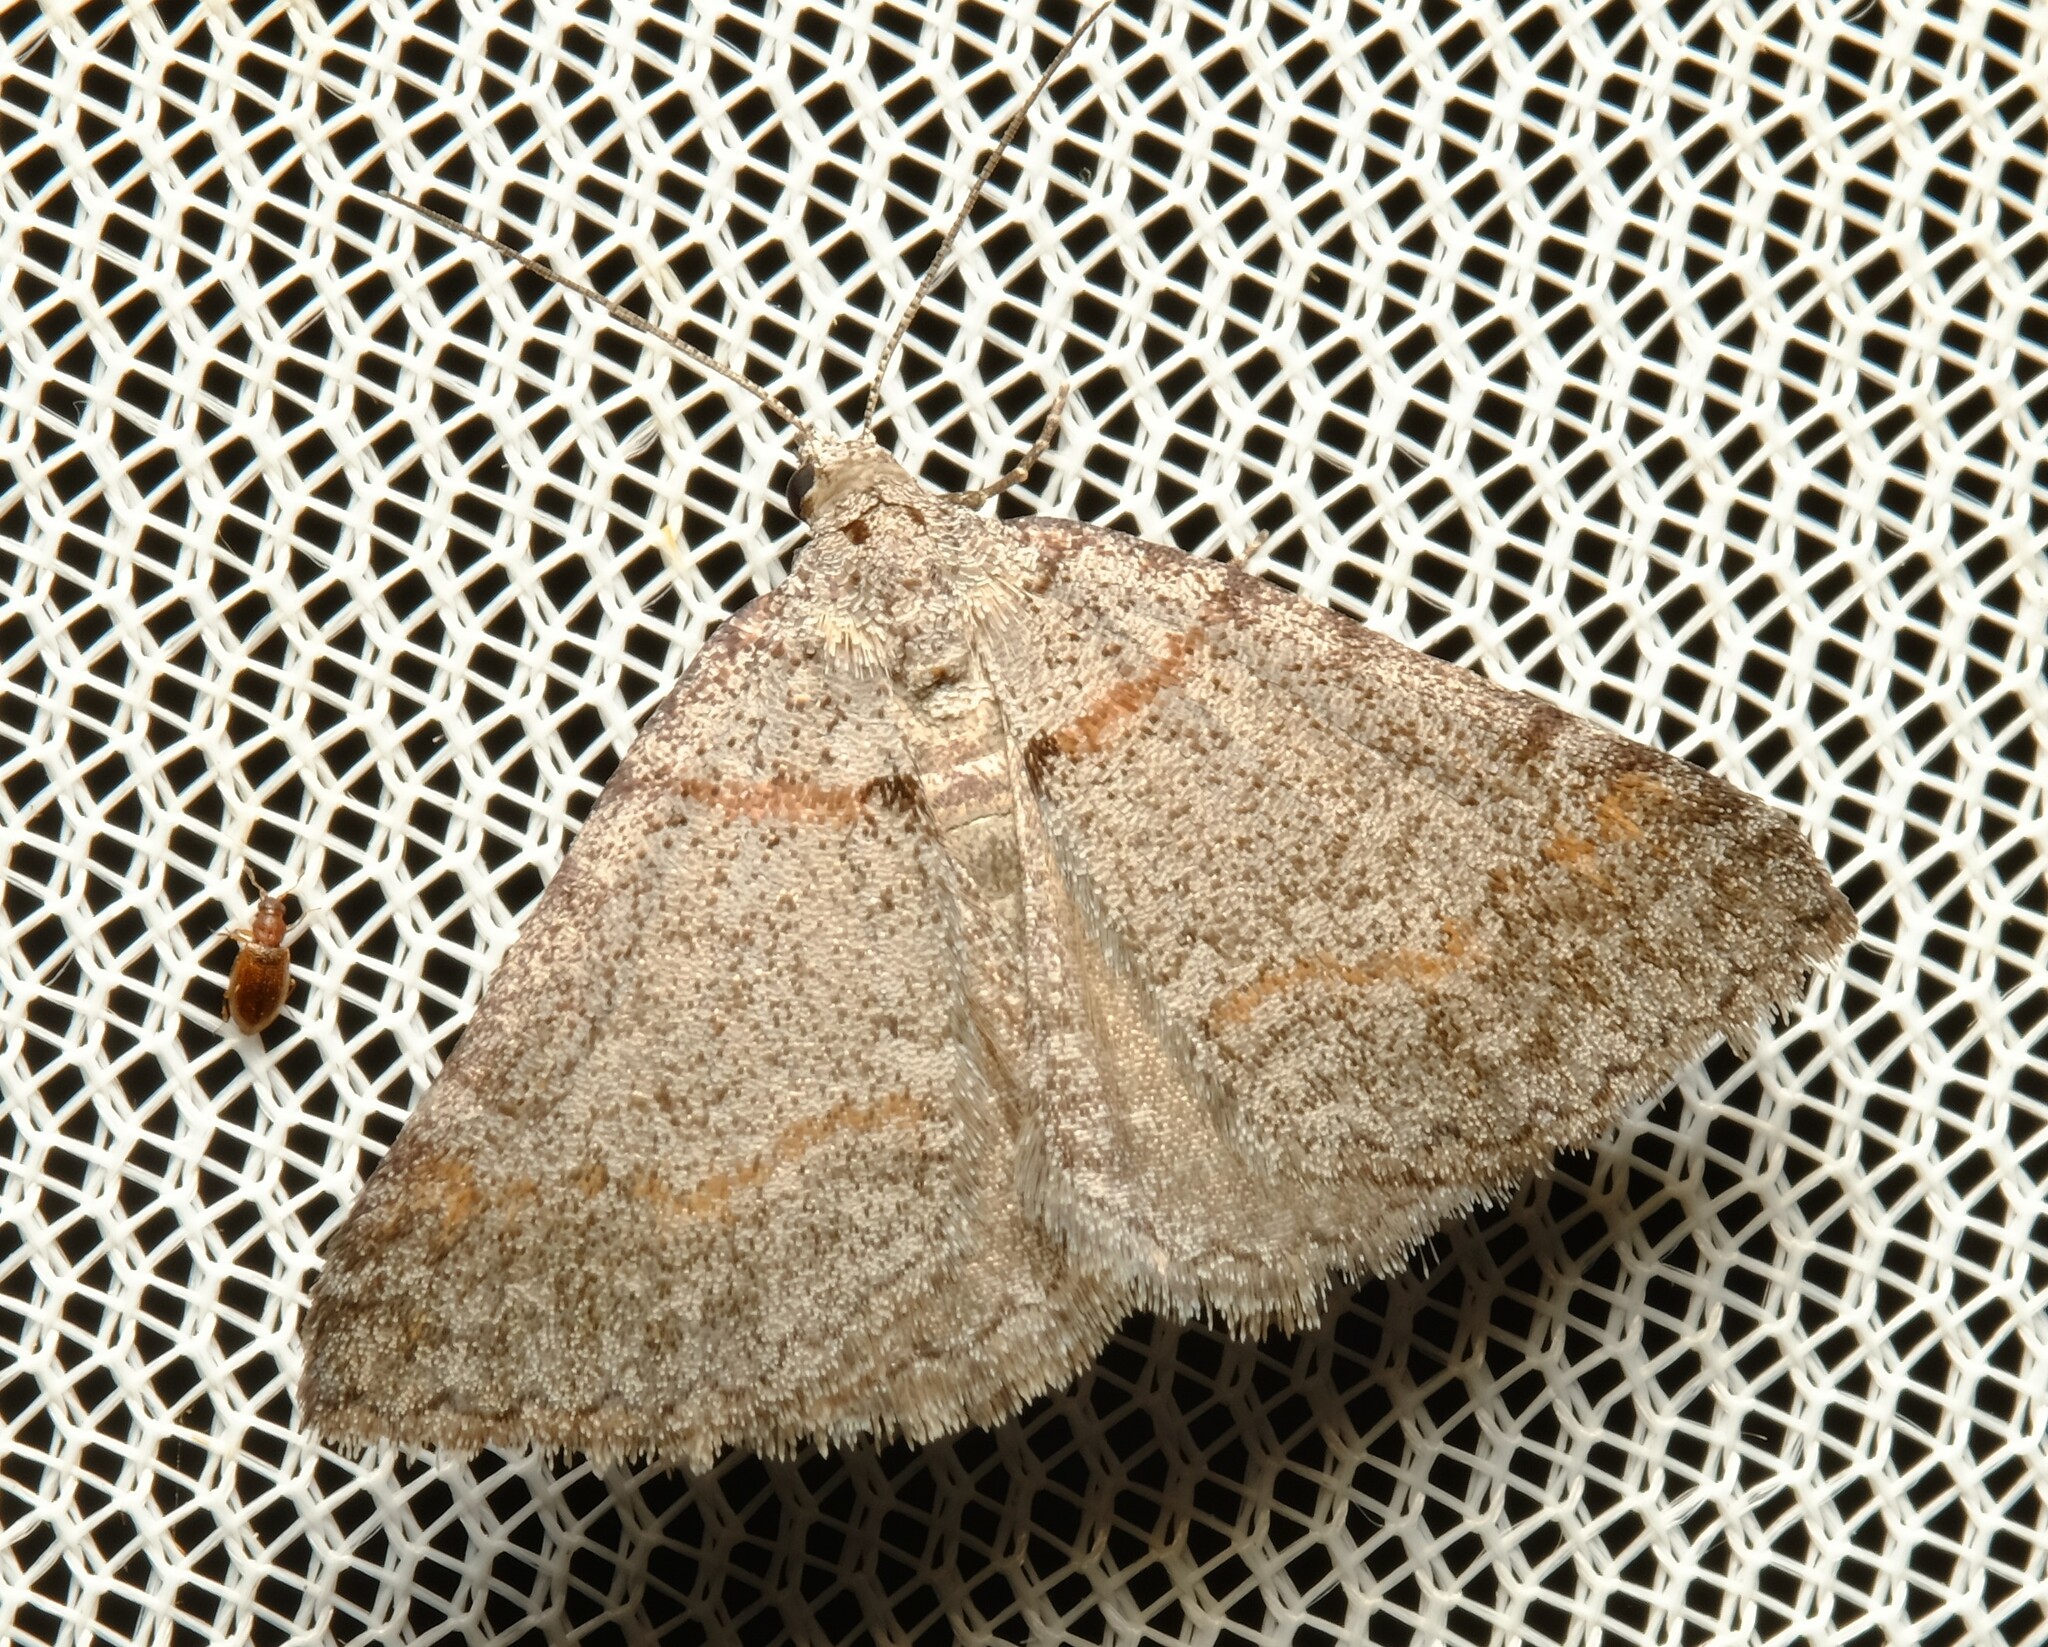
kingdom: Animalia
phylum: Arthropoda
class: Insecta
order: Lepidoptera
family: Geometridae
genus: Dichromodes
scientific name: Dichromodes obtusata
